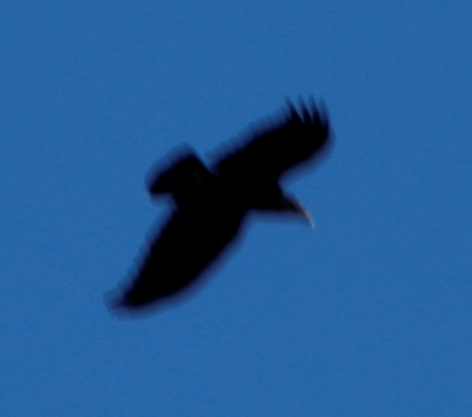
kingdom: Animalia
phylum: Chordata
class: Aves
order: Passeriformes
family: Corvidae
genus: Corvus
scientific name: Corvus albicollis
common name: White-necked raven
